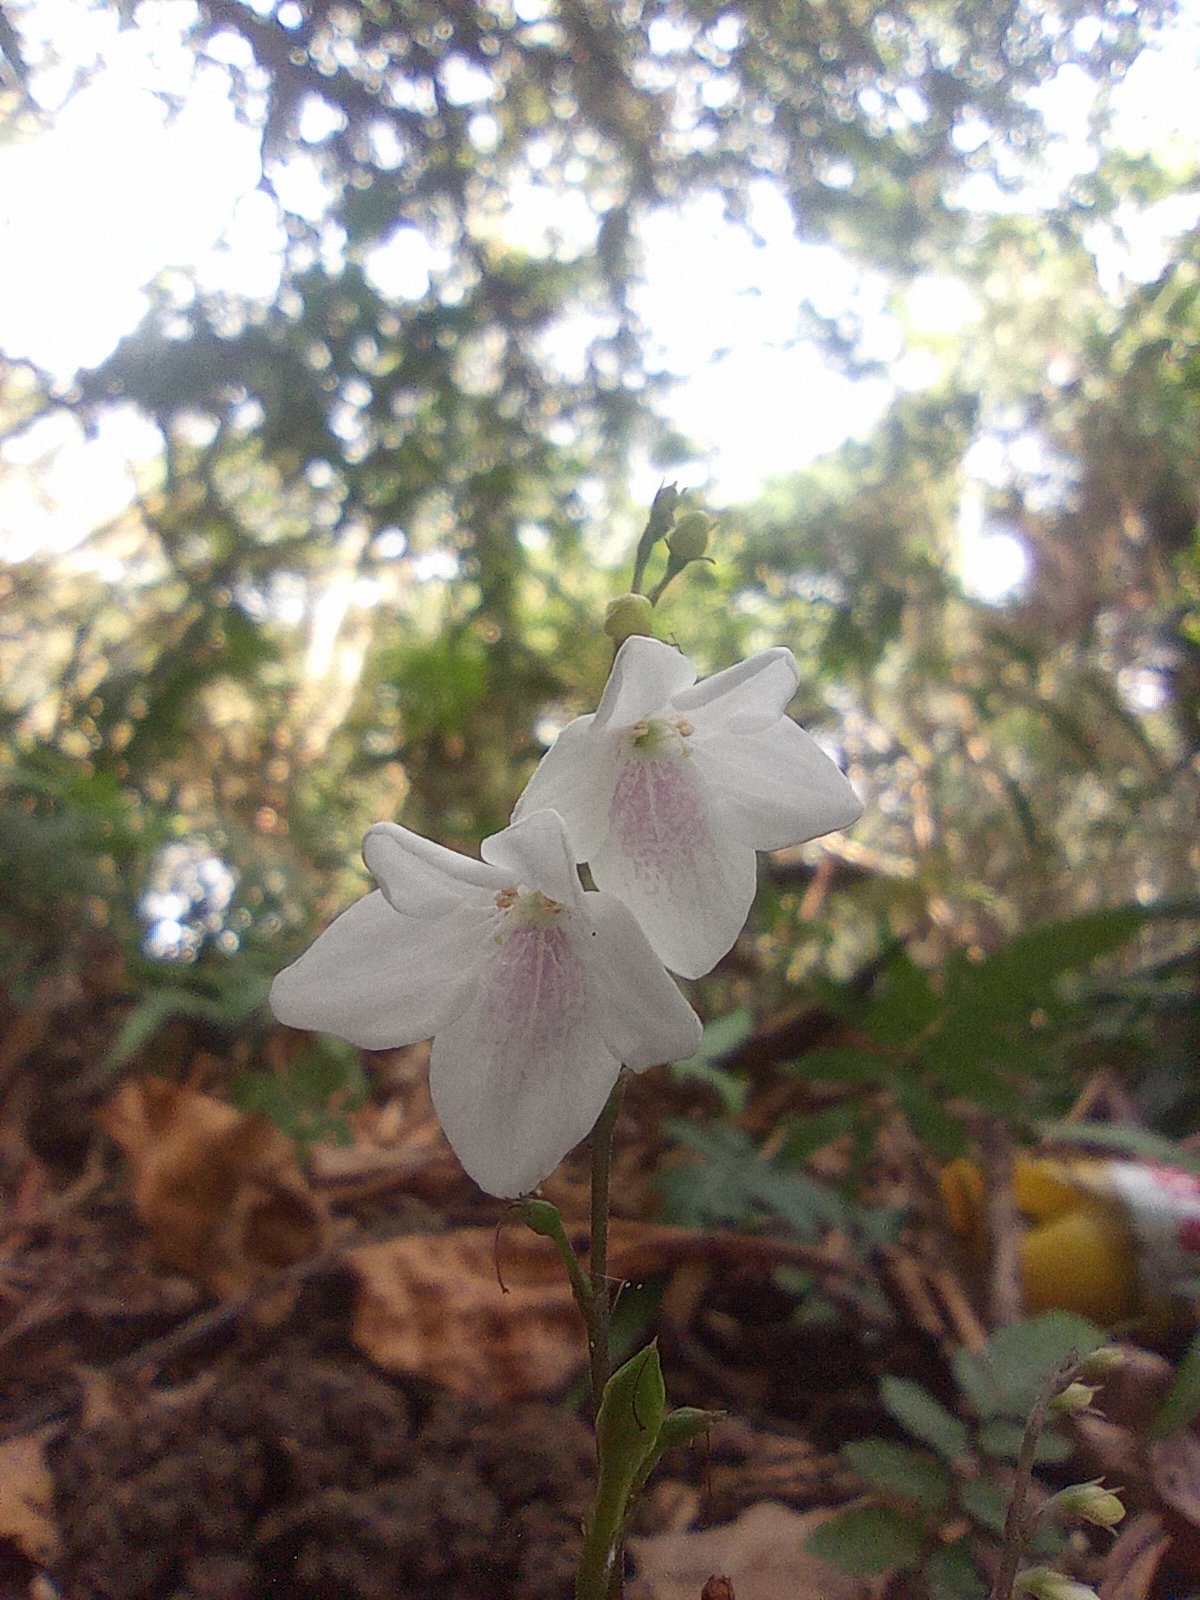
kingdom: Plantae
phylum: Tracheophyta
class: Magnoliopsida
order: Lamiales
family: Acanthaceae
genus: Codonacanthus
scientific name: Codonacanthus pauciflorus
